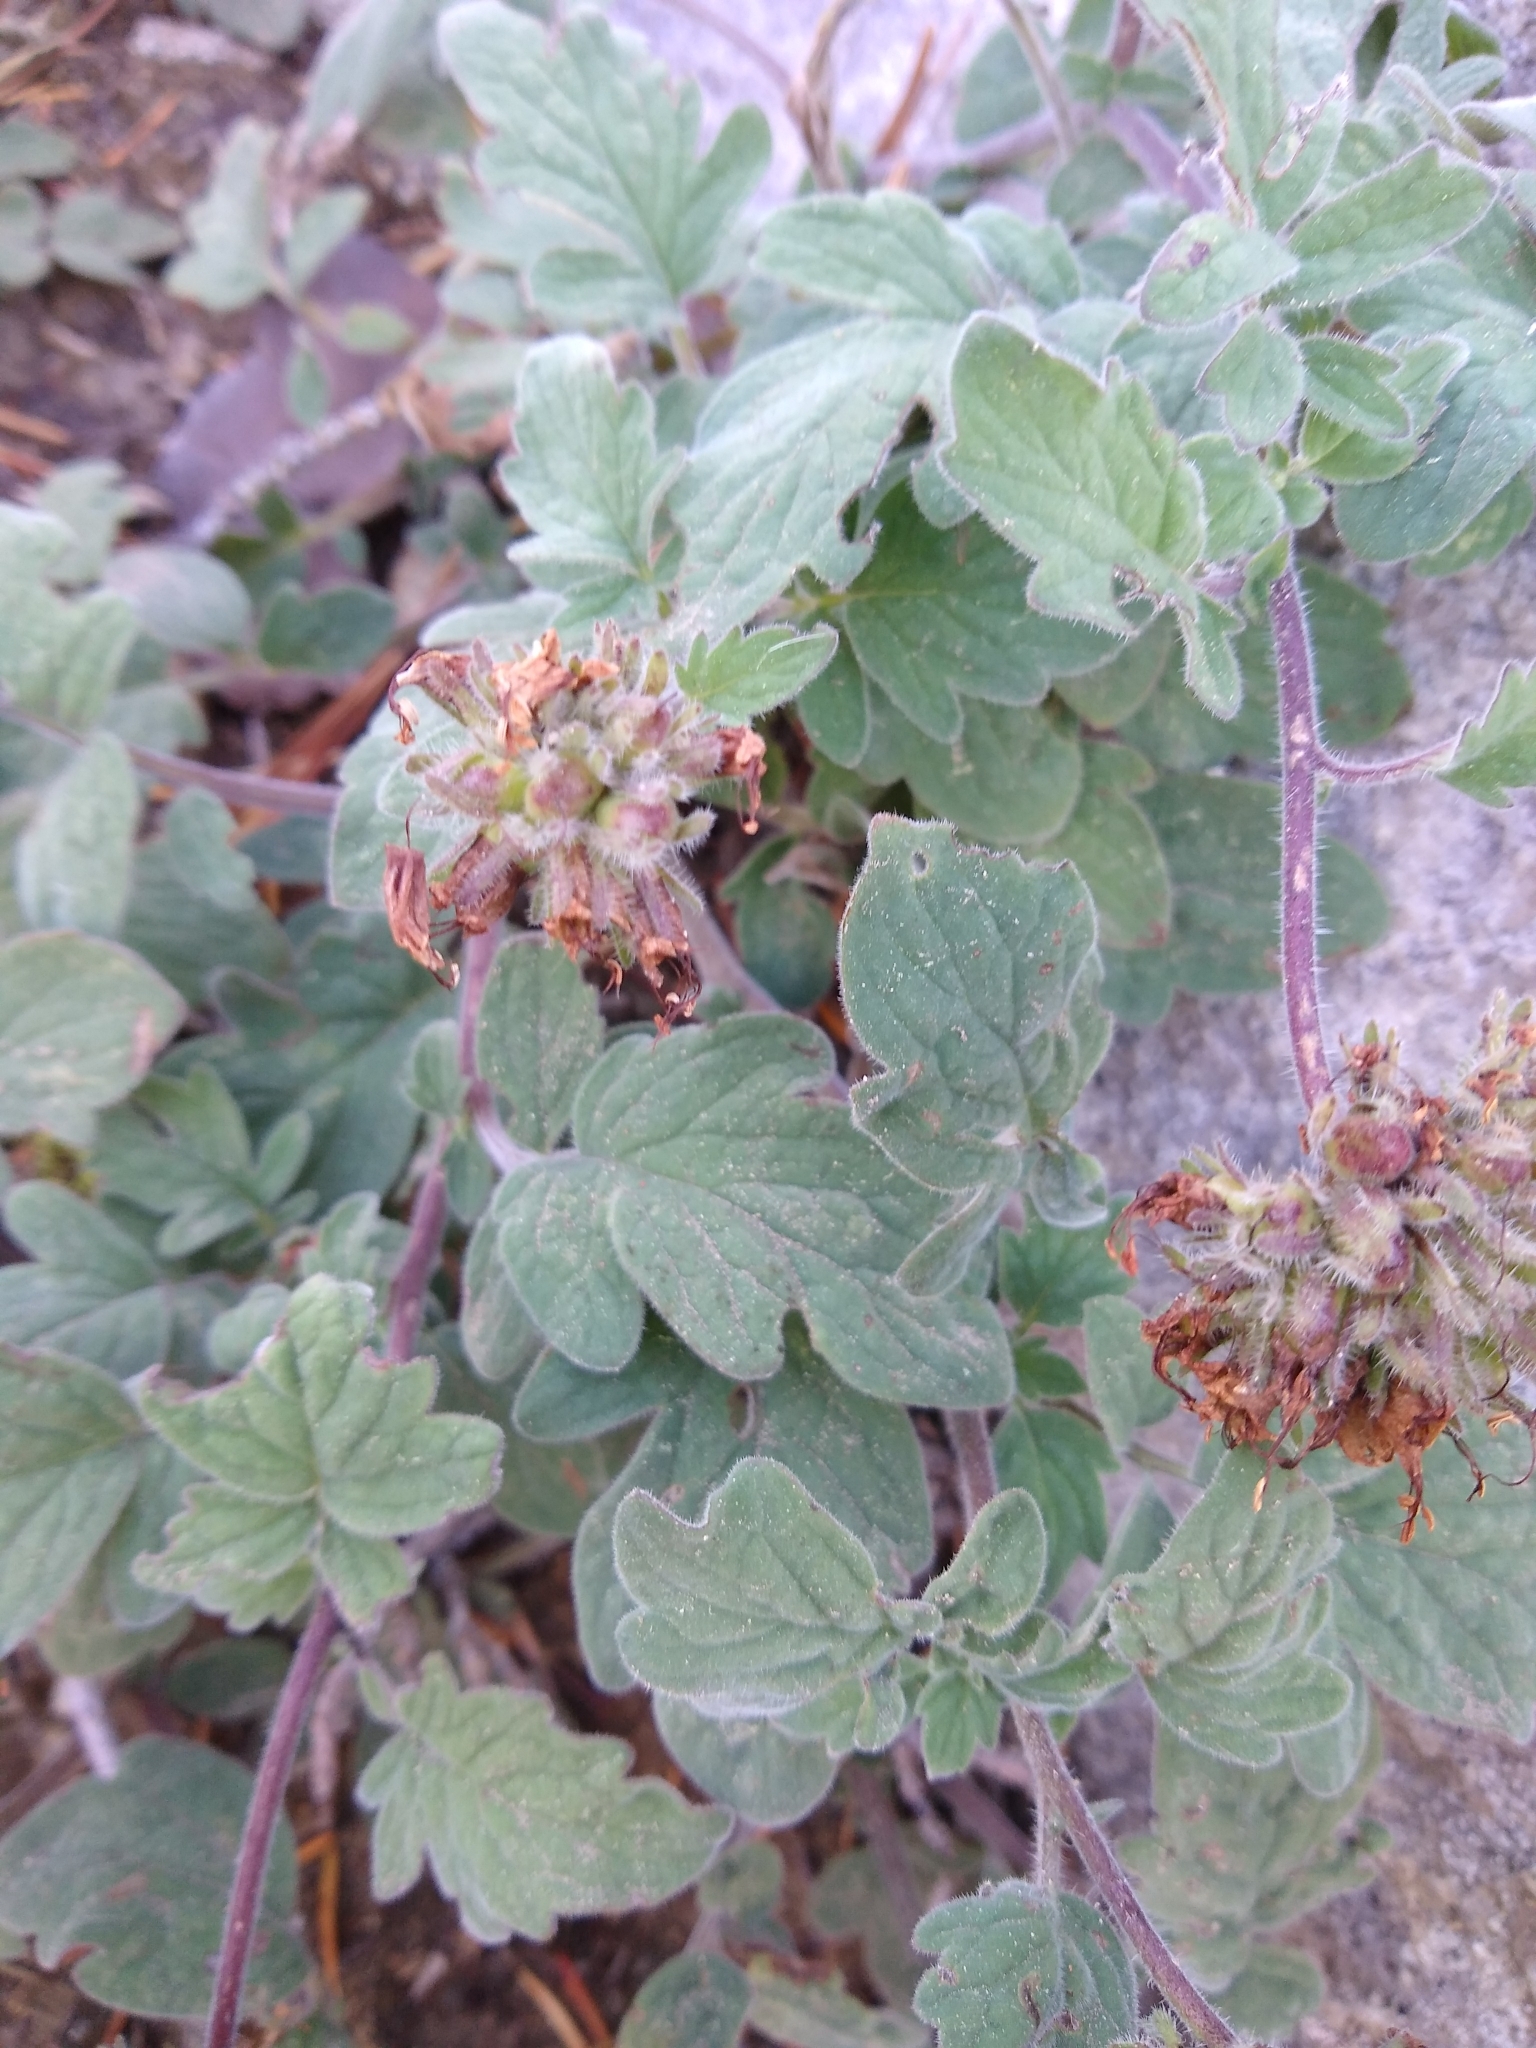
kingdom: Plantae
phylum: Tracheophyta
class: Magnoliopsida
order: Boraginales
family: Hydrophyllaceae
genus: Phacelia
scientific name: Phacelia hydrophylloides
